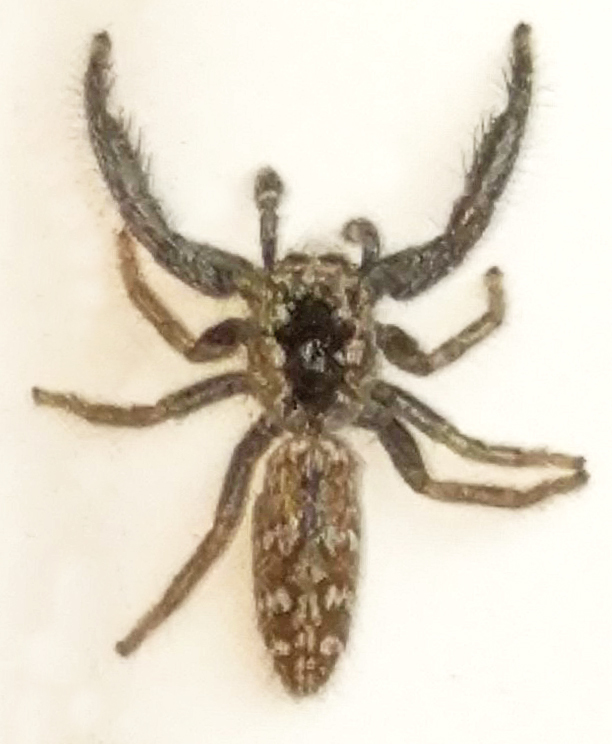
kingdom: Animalia
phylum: Arthropoda
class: Arachnida
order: Araneae
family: Salticidae
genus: Marpissa
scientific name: Marpissa nivoyi
